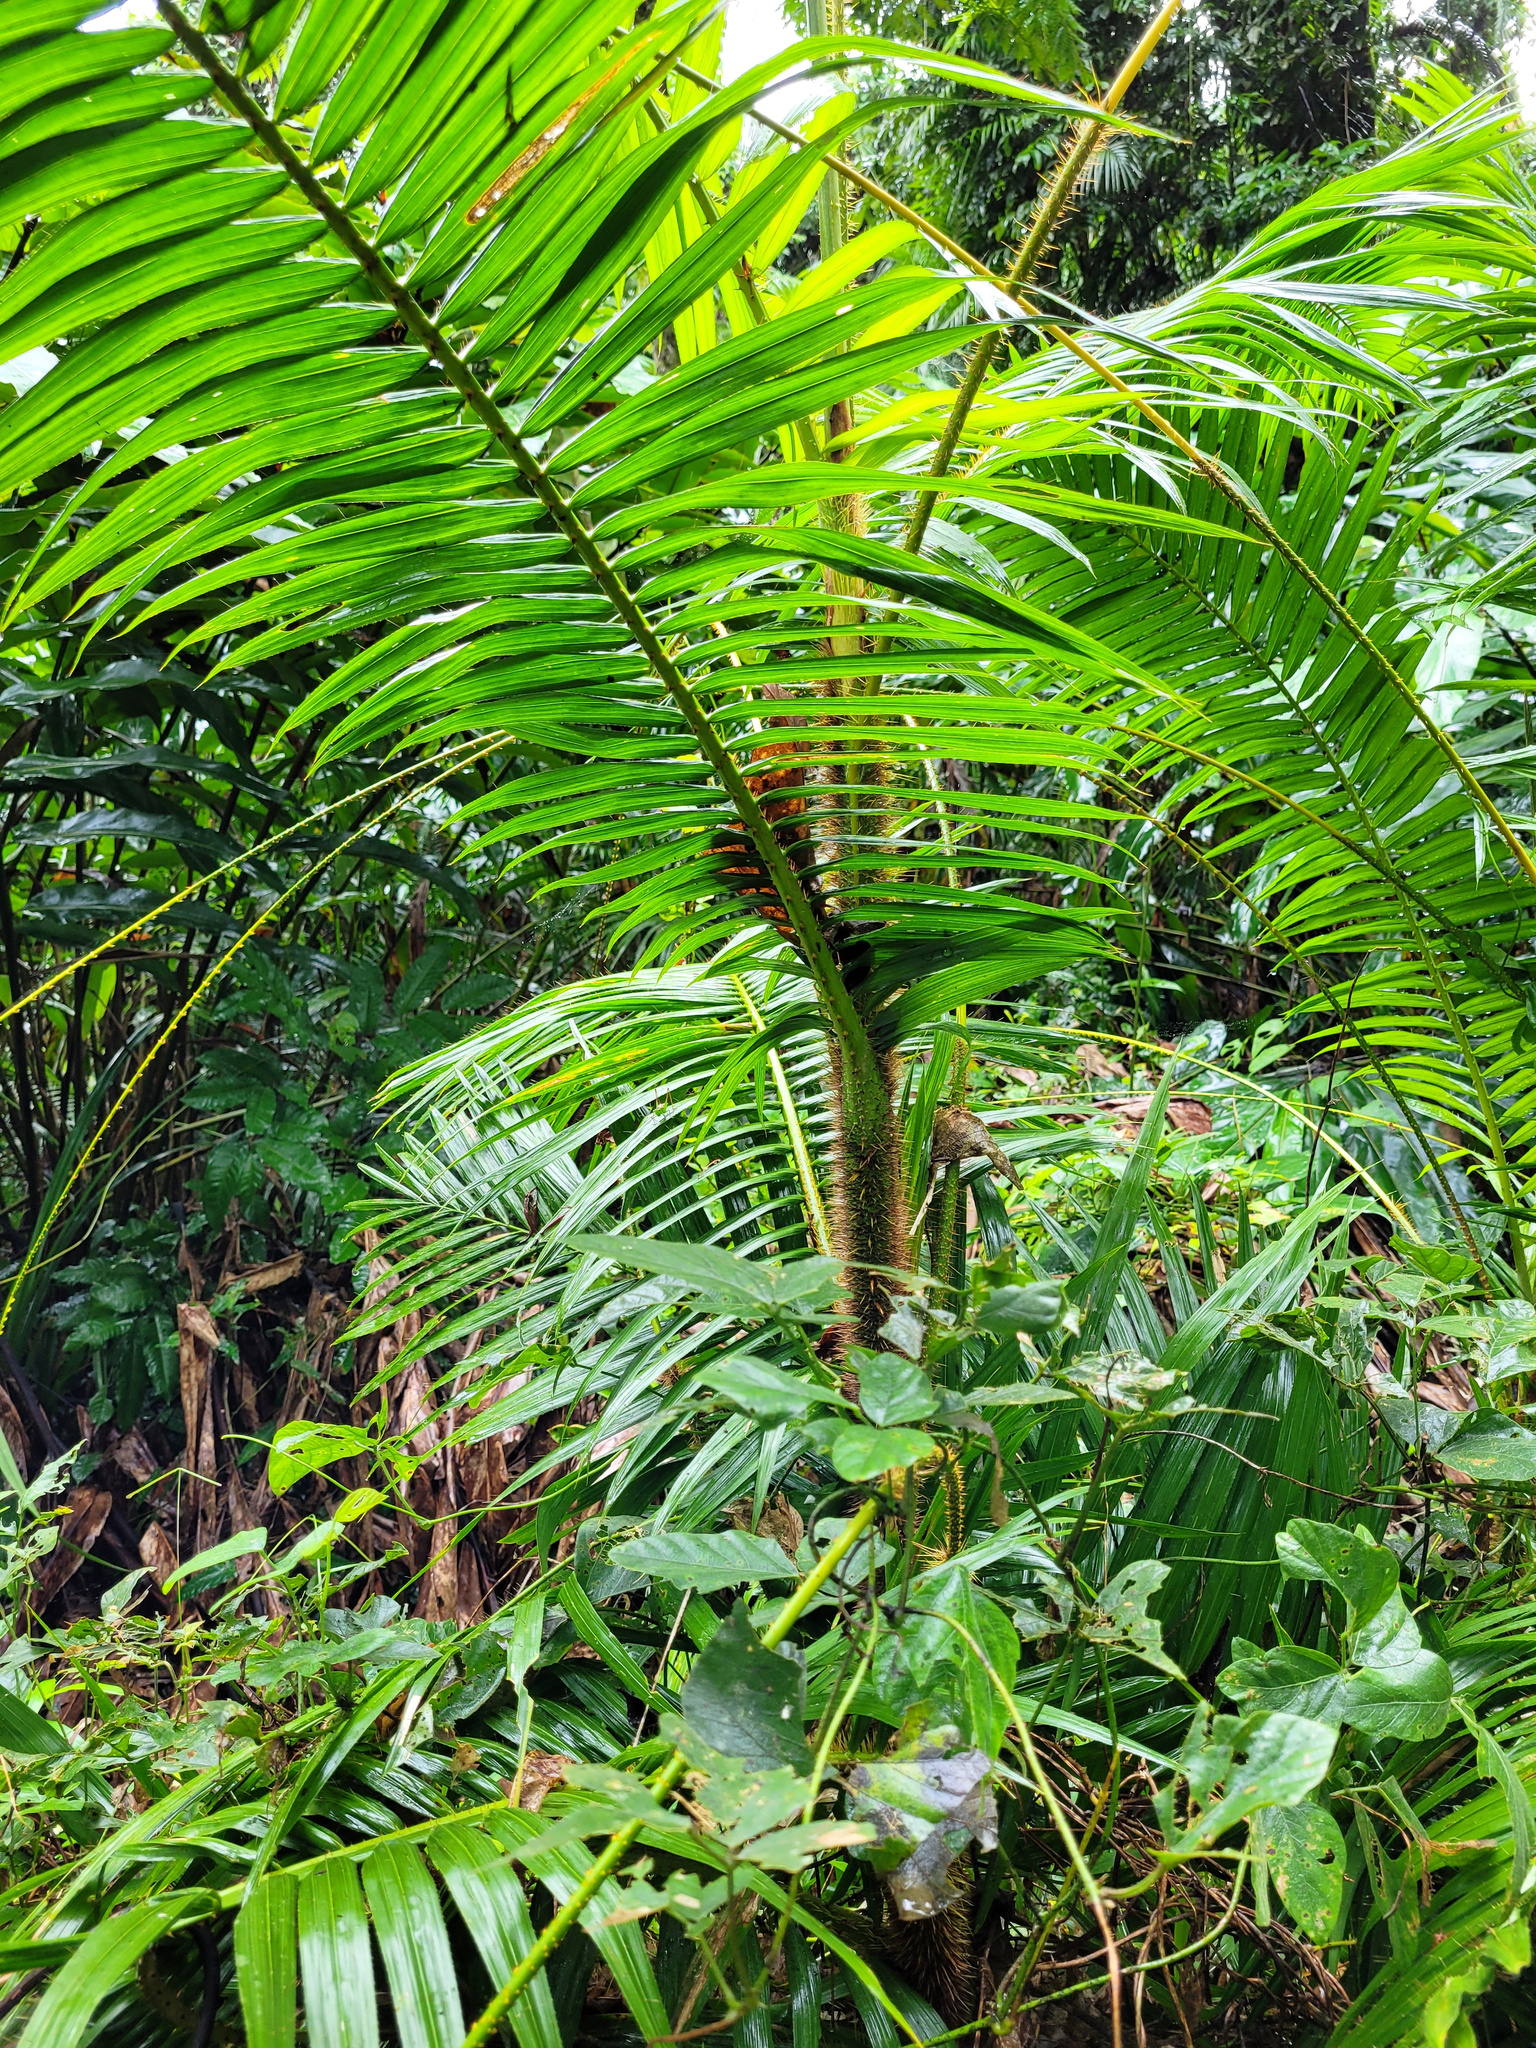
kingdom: Plantae
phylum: Tracheophyta
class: Liliopsida
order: Arecales
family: Arecaceae
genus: Calamus
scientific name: Calamus radicalis
